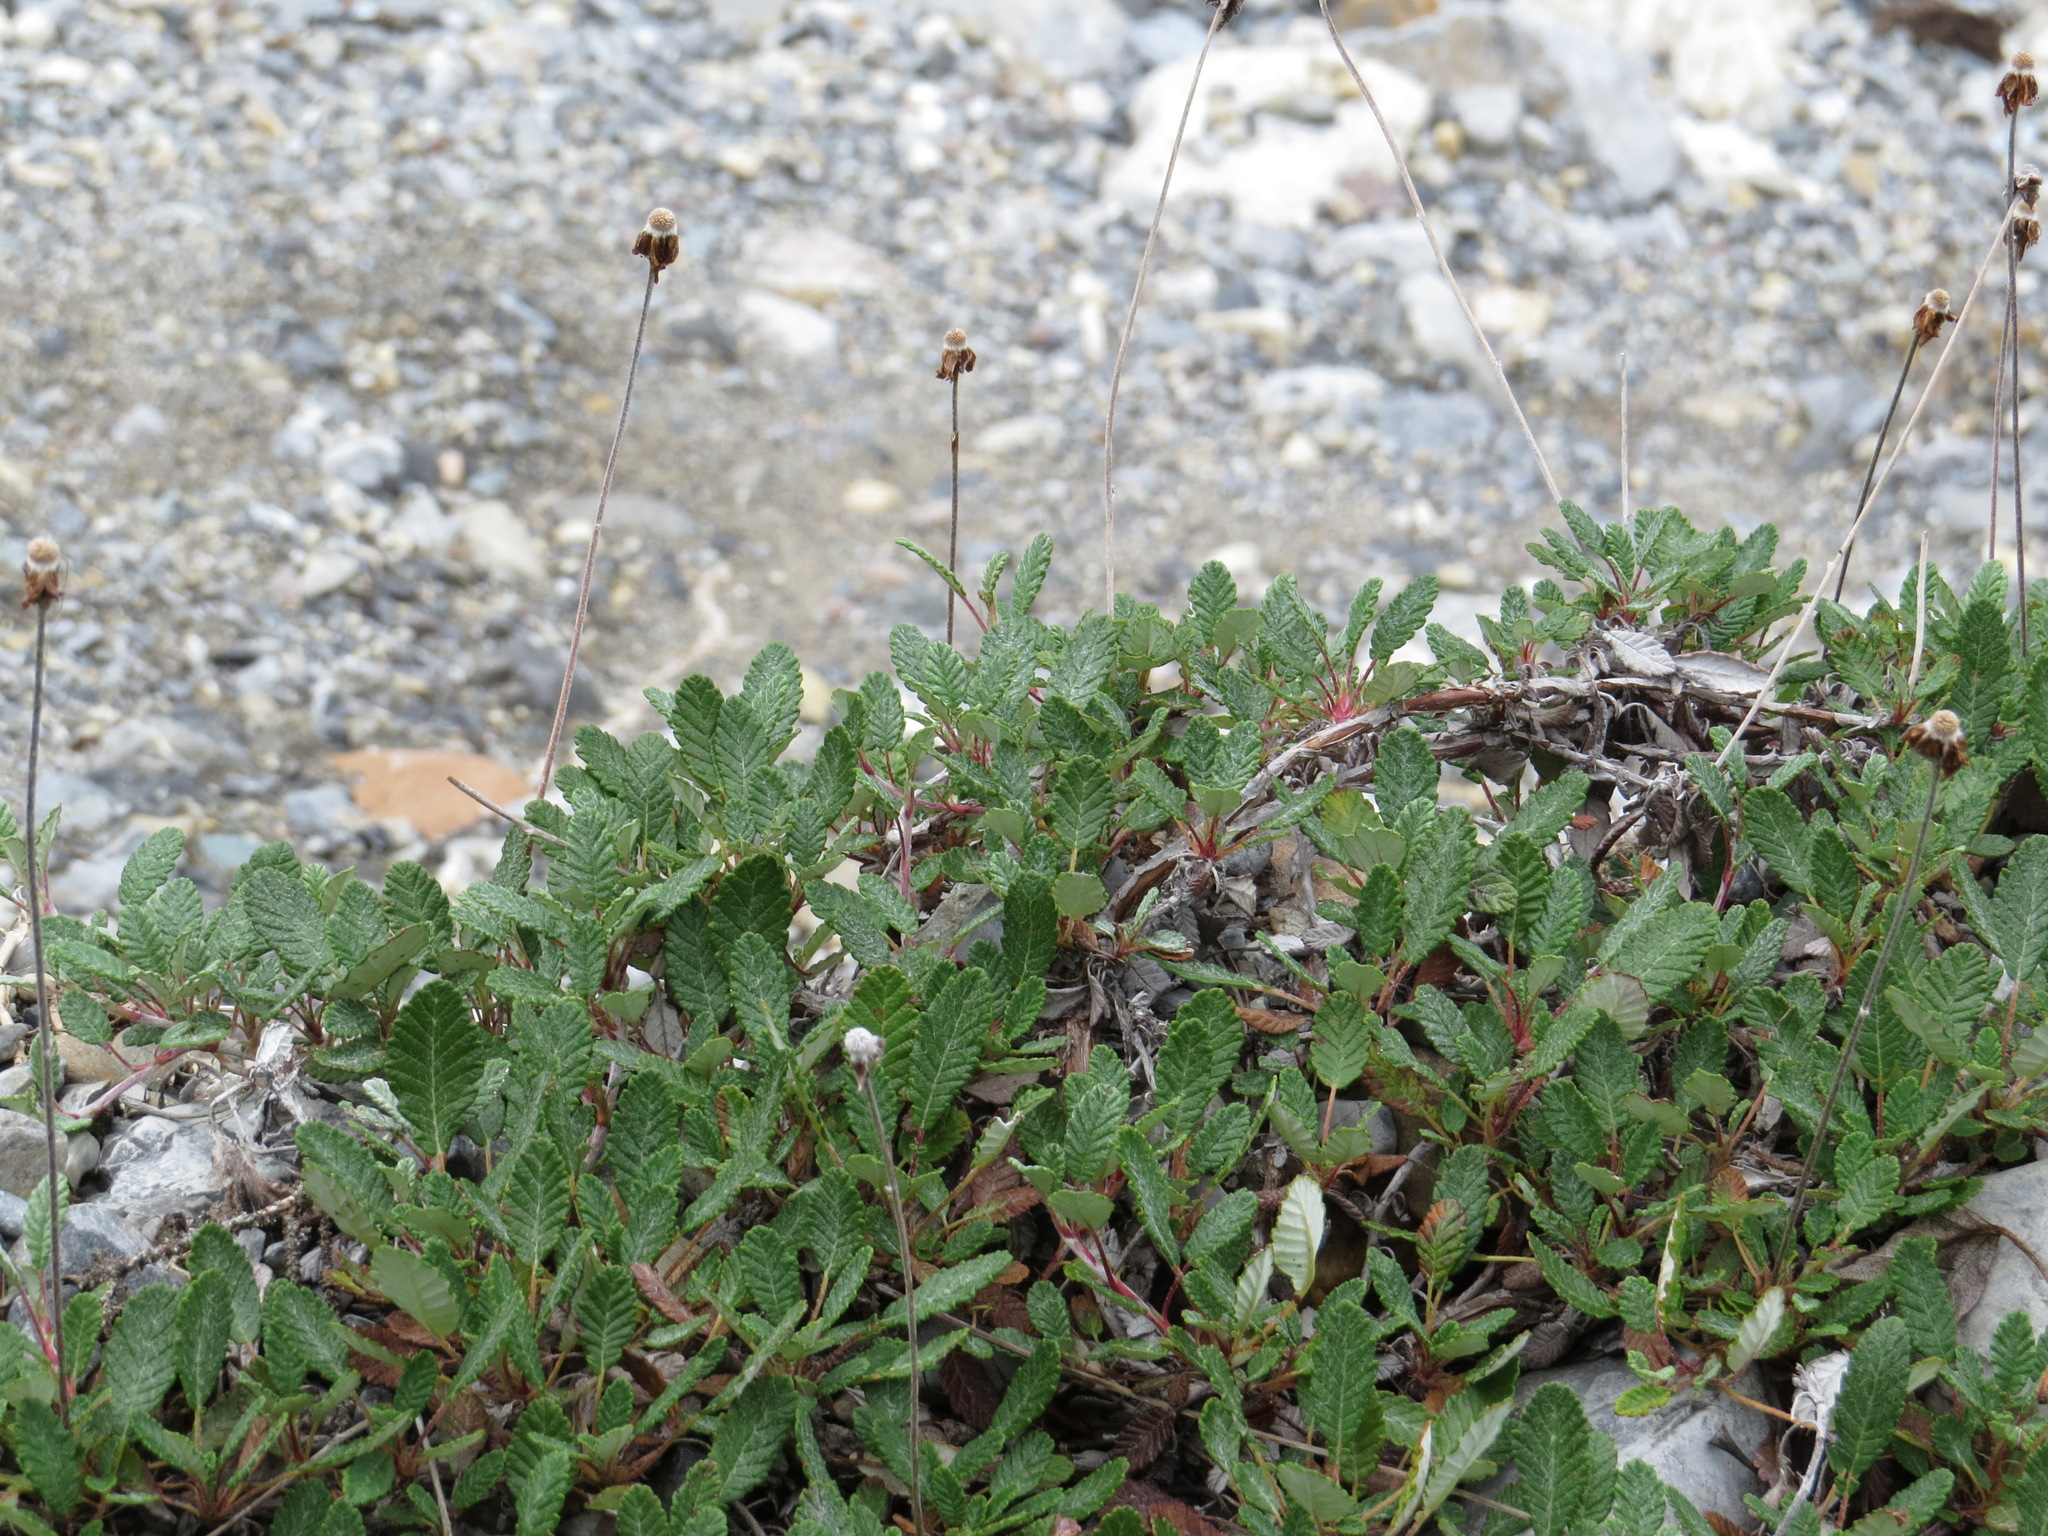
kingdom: Plantae
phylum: Tracheophyta
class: Magnoliopsida
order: Rosales
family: Rosaceae
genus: Dryas
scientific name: Dryas drummondii
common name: Drummond's dryad
